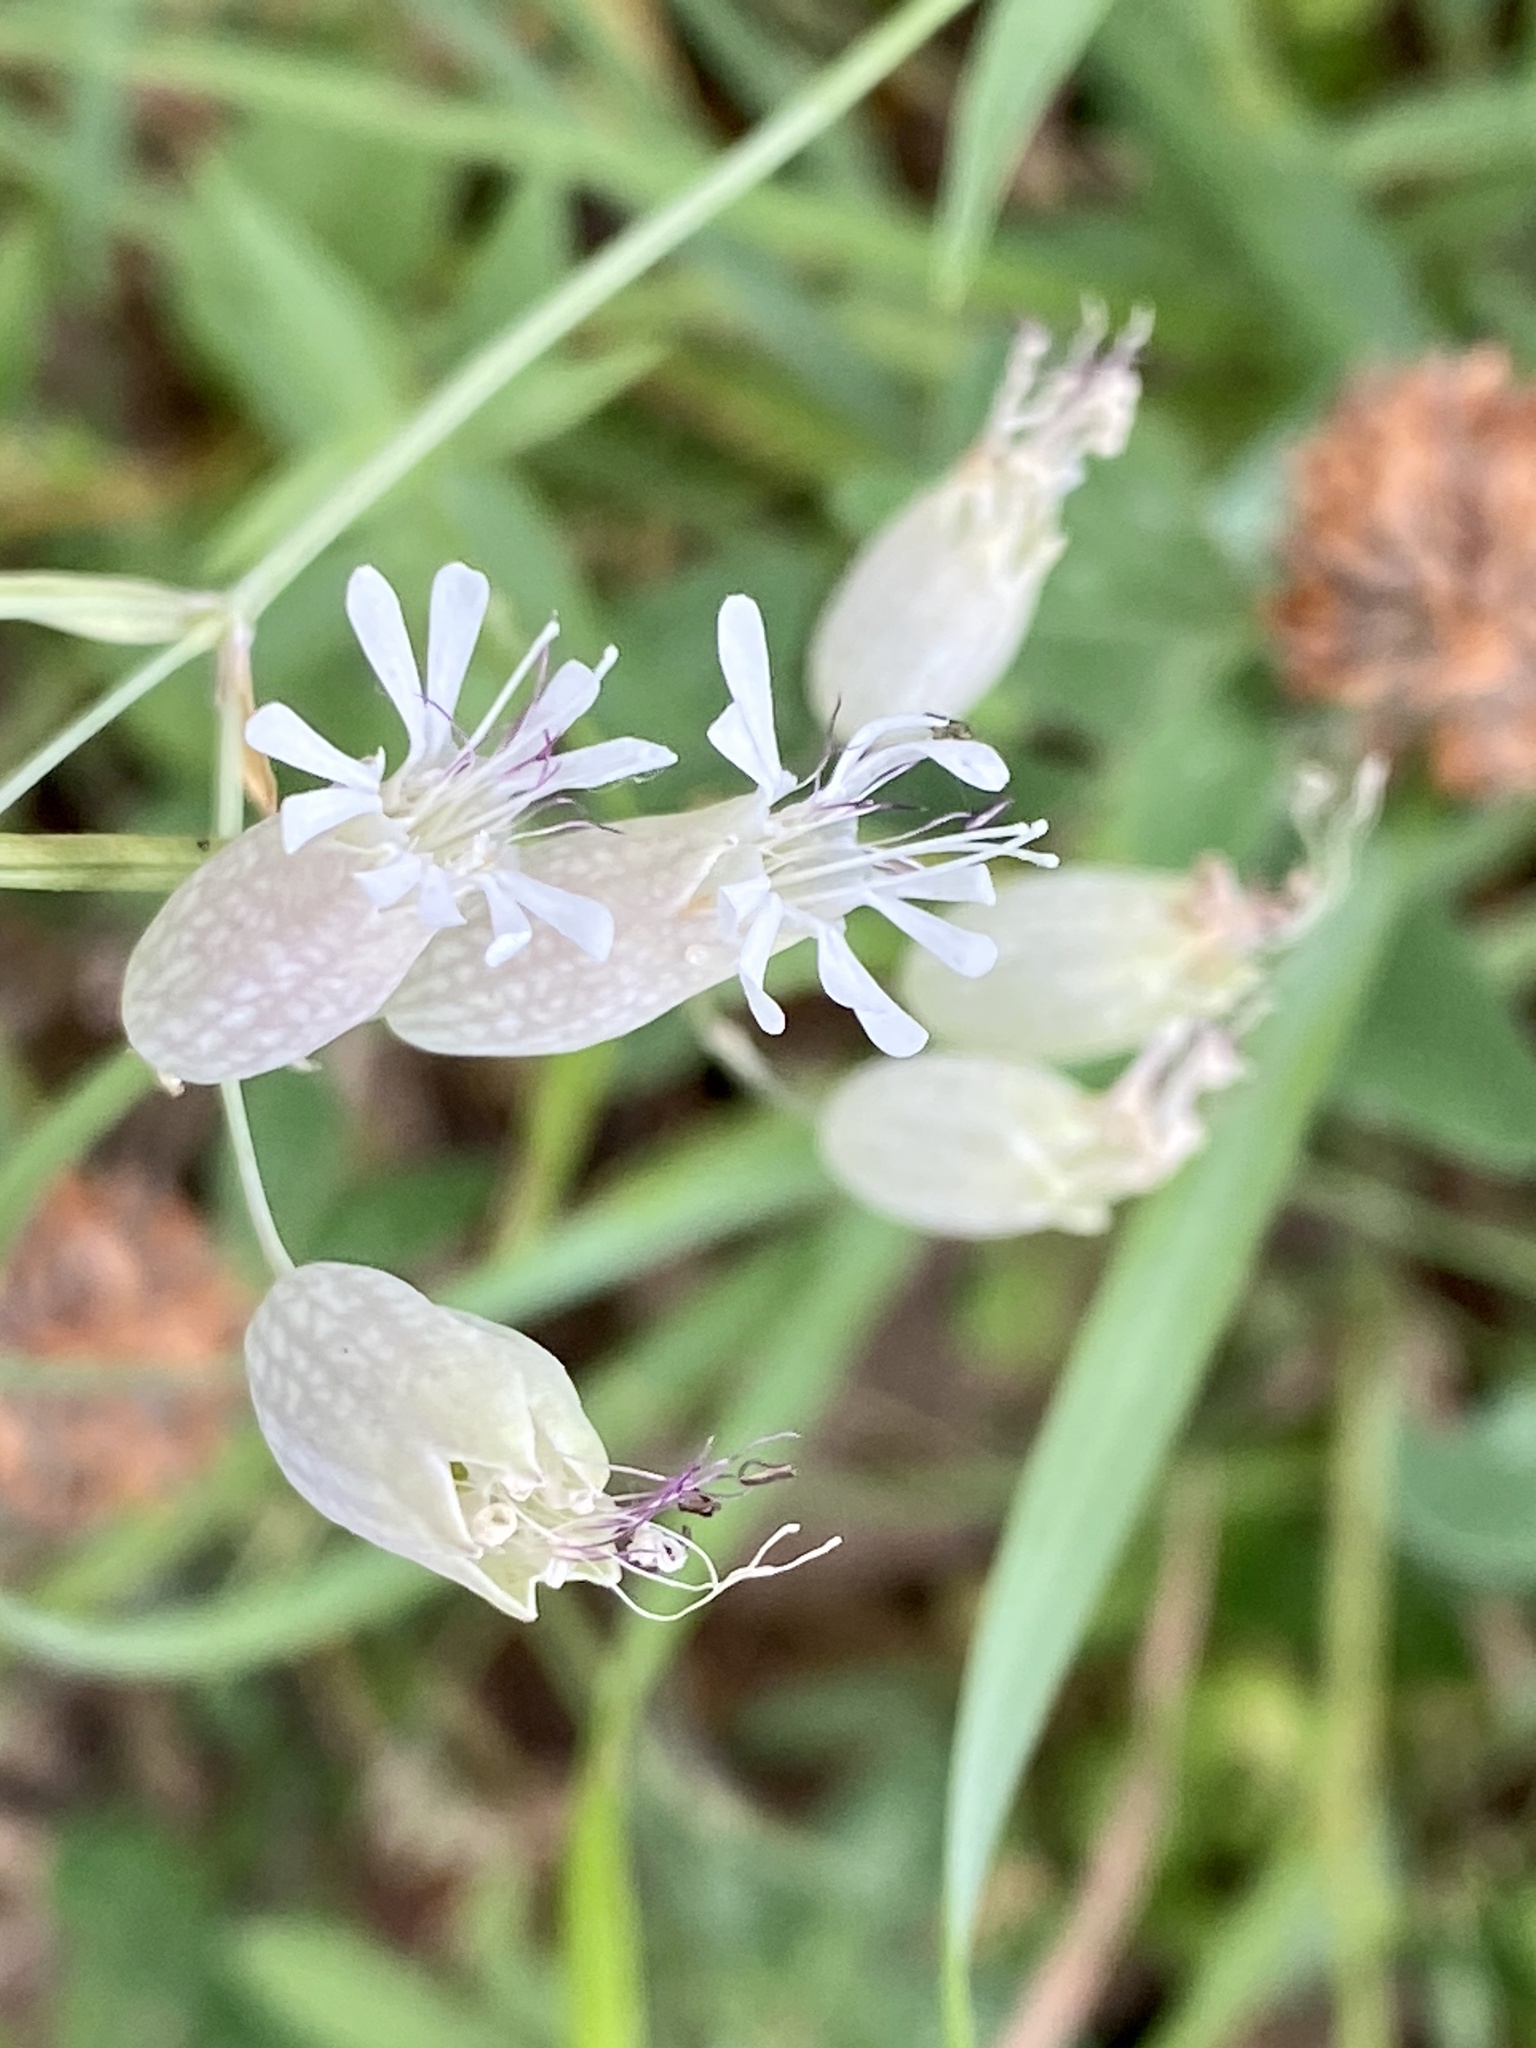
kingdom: Plantae
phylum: Tracheophyta
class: Magnoliopsida
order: Caryophyllales
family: Caryophyllaceae
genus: Silene
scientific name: Silene vulgaris
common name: Bladder campion
